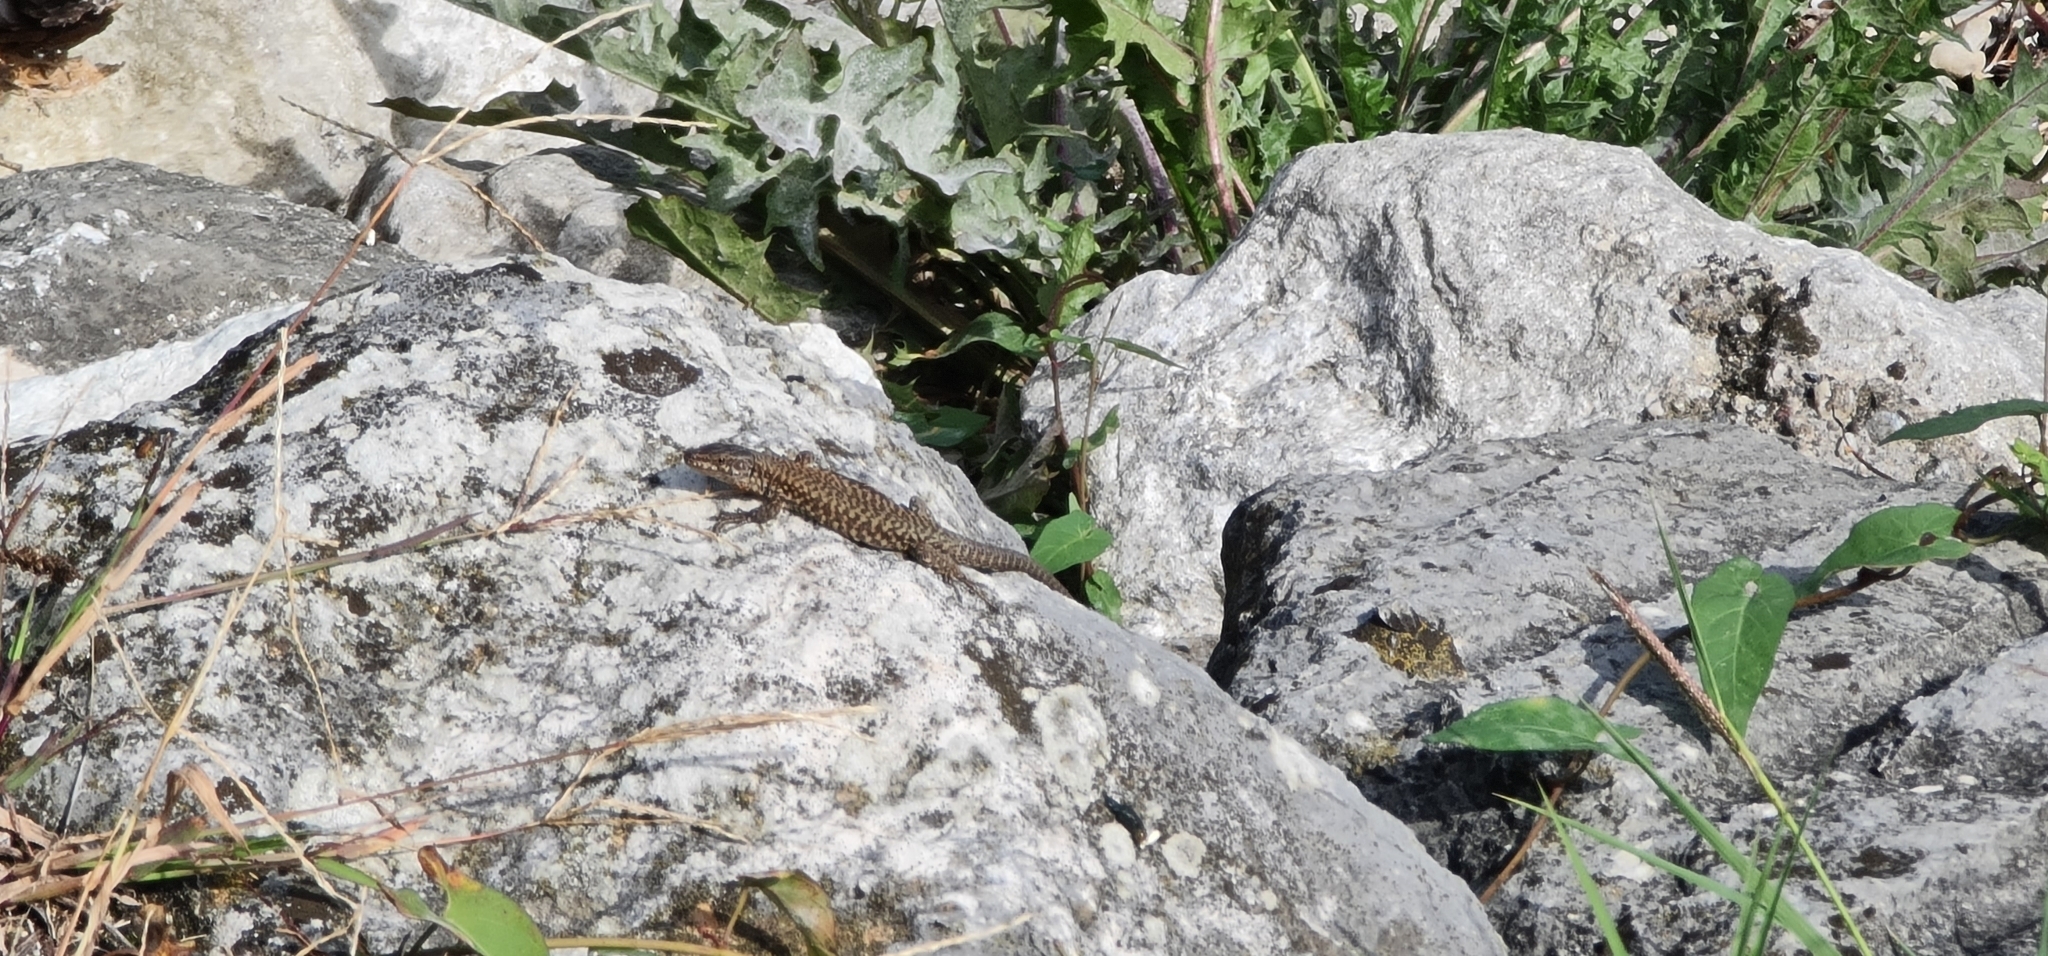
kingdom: Animalia
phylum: Chordata
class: Squamata
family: Lacertidae
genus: Podarcis
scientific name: Podarcis muralis
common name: Common wall lizard
